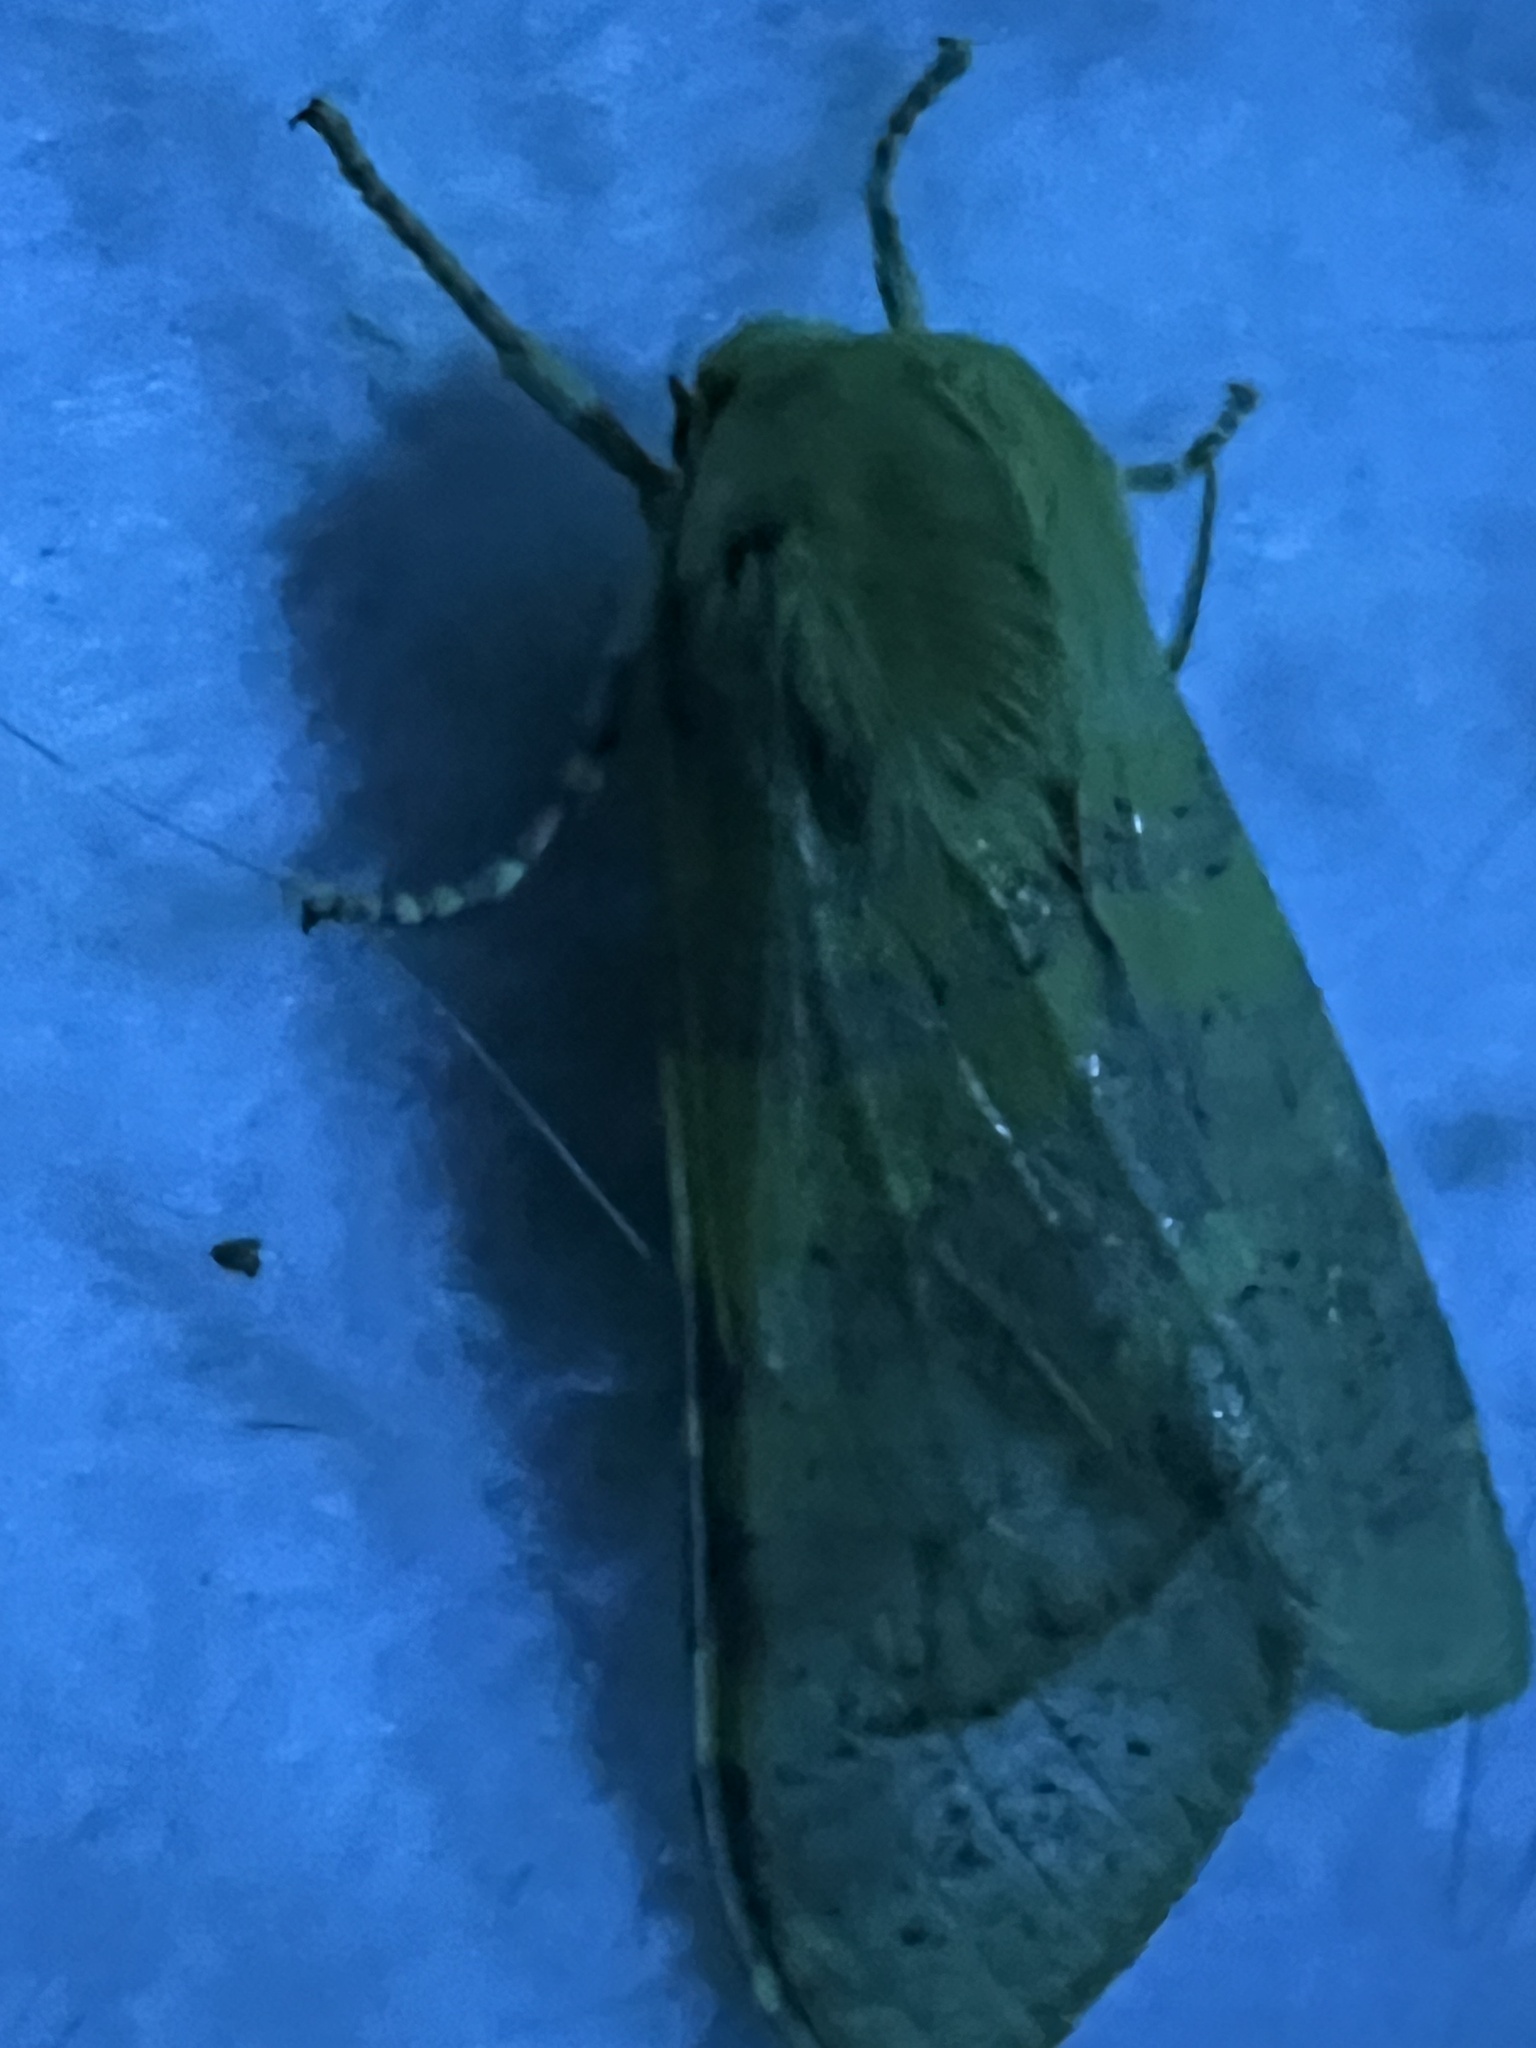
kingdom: Animalia
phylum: Arthropoda
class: Insecta
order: Lepidoptera
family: Erebidae
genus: Hemihyalea
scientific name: Hemihyalea edwardsii
